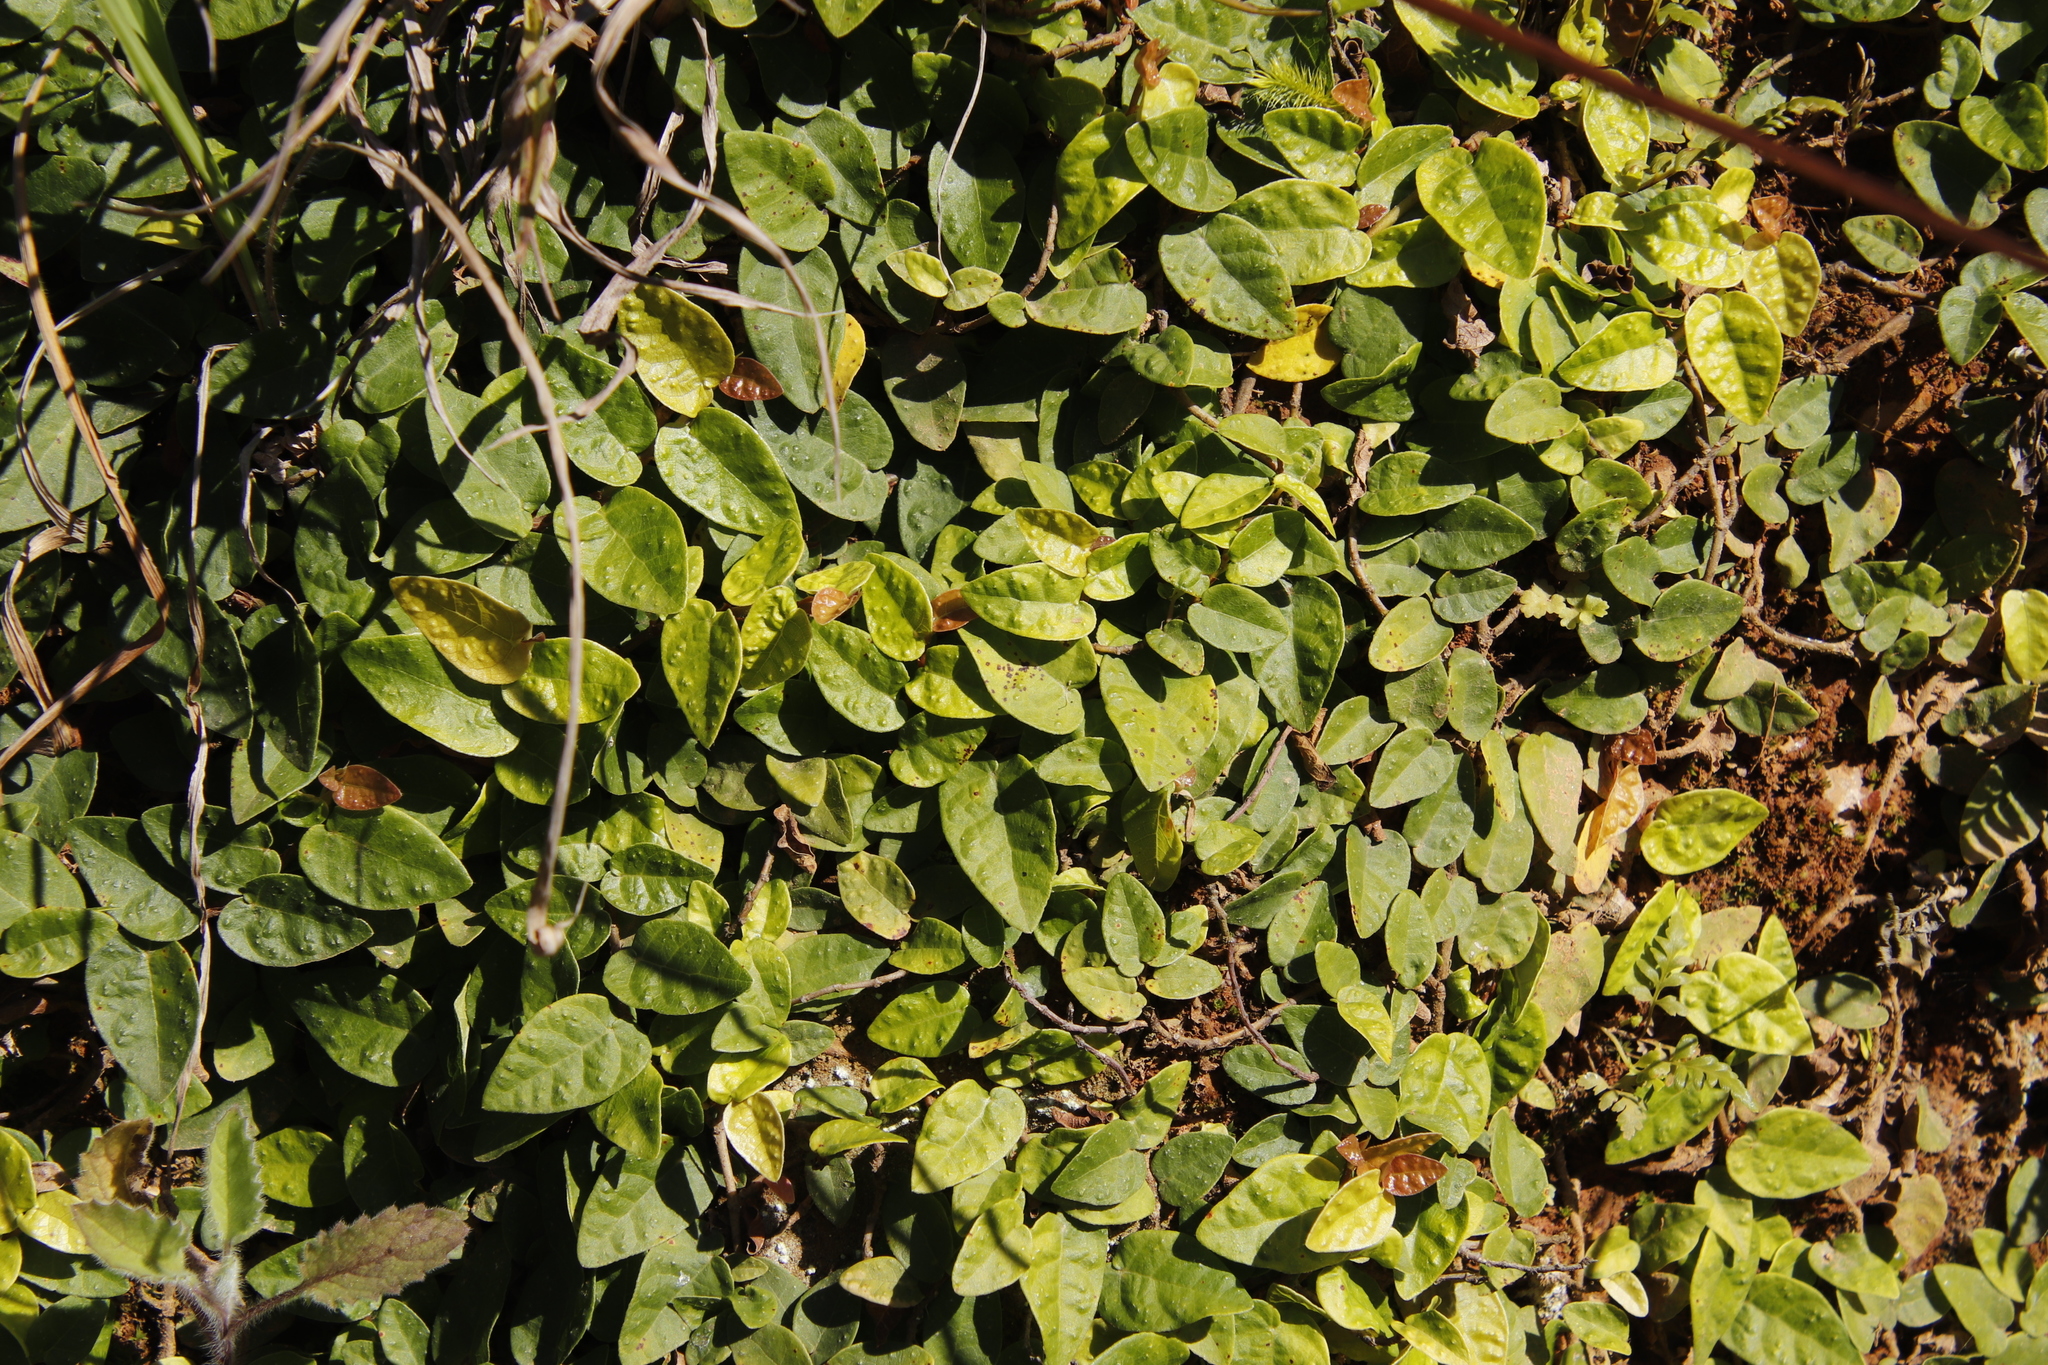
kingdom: Plantae
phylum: Tracheophyta
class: Magnoliopsida
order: Rosales
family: Moraceae
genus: Ficus
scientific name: Ficus pumila
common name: Climbingfig
